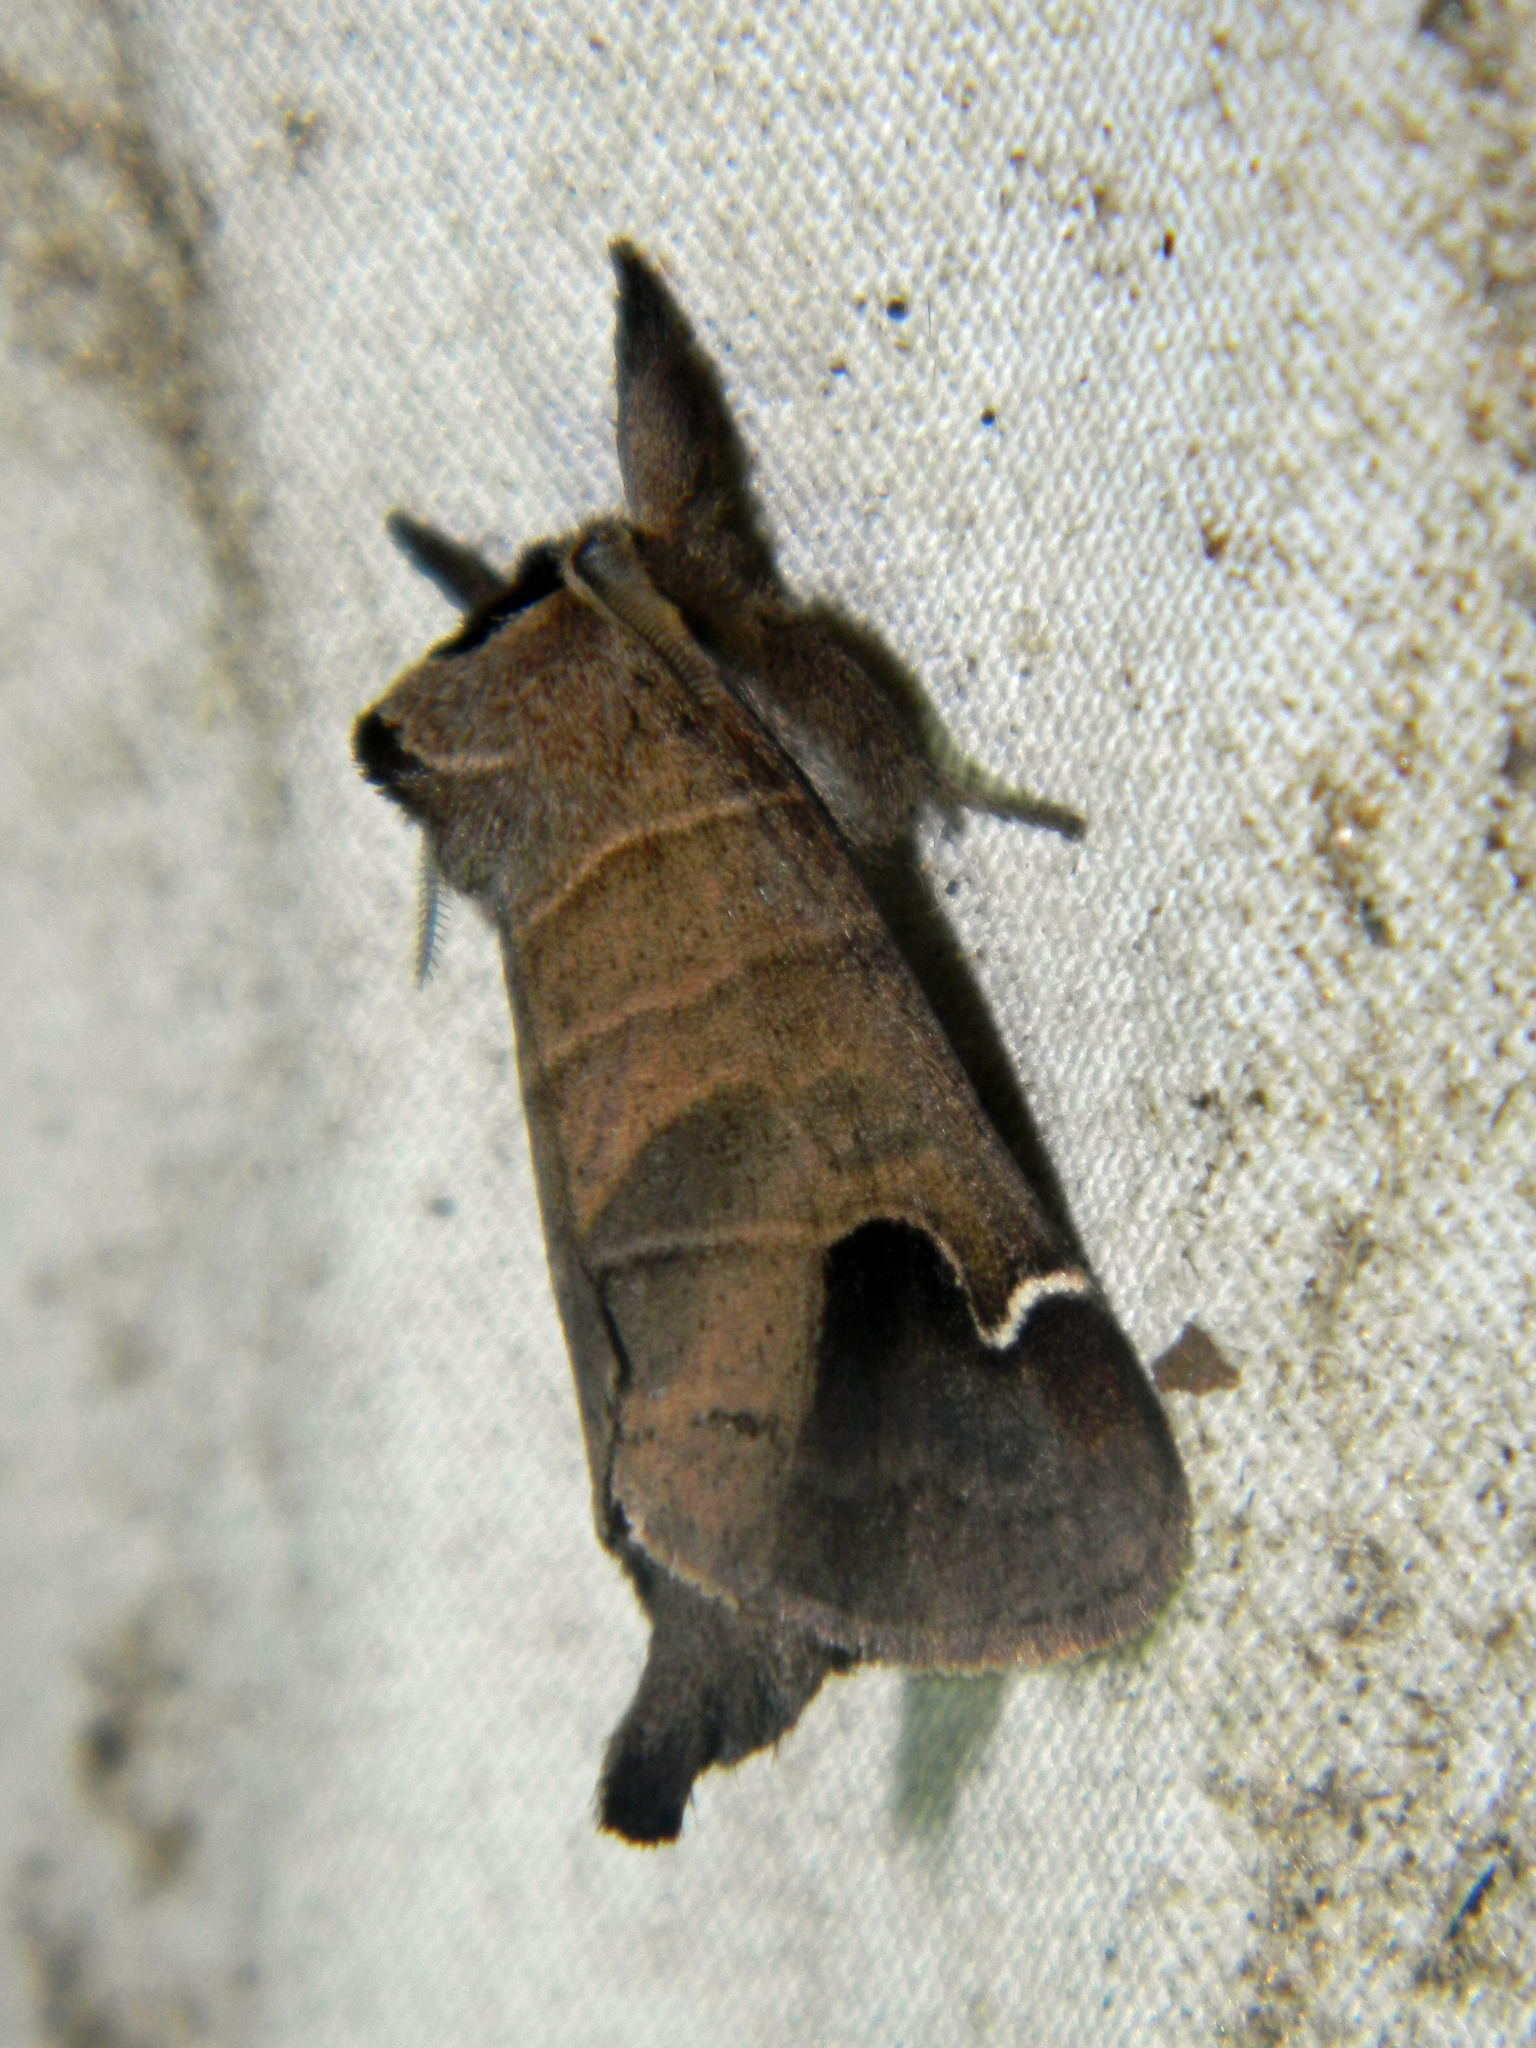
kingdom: Animalia
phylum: Arthropoda
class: Insecta
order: Lepidoptera
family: Notodontidae
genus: Clostera
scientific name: Clostera albosigma
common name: Sigmoid prominent
